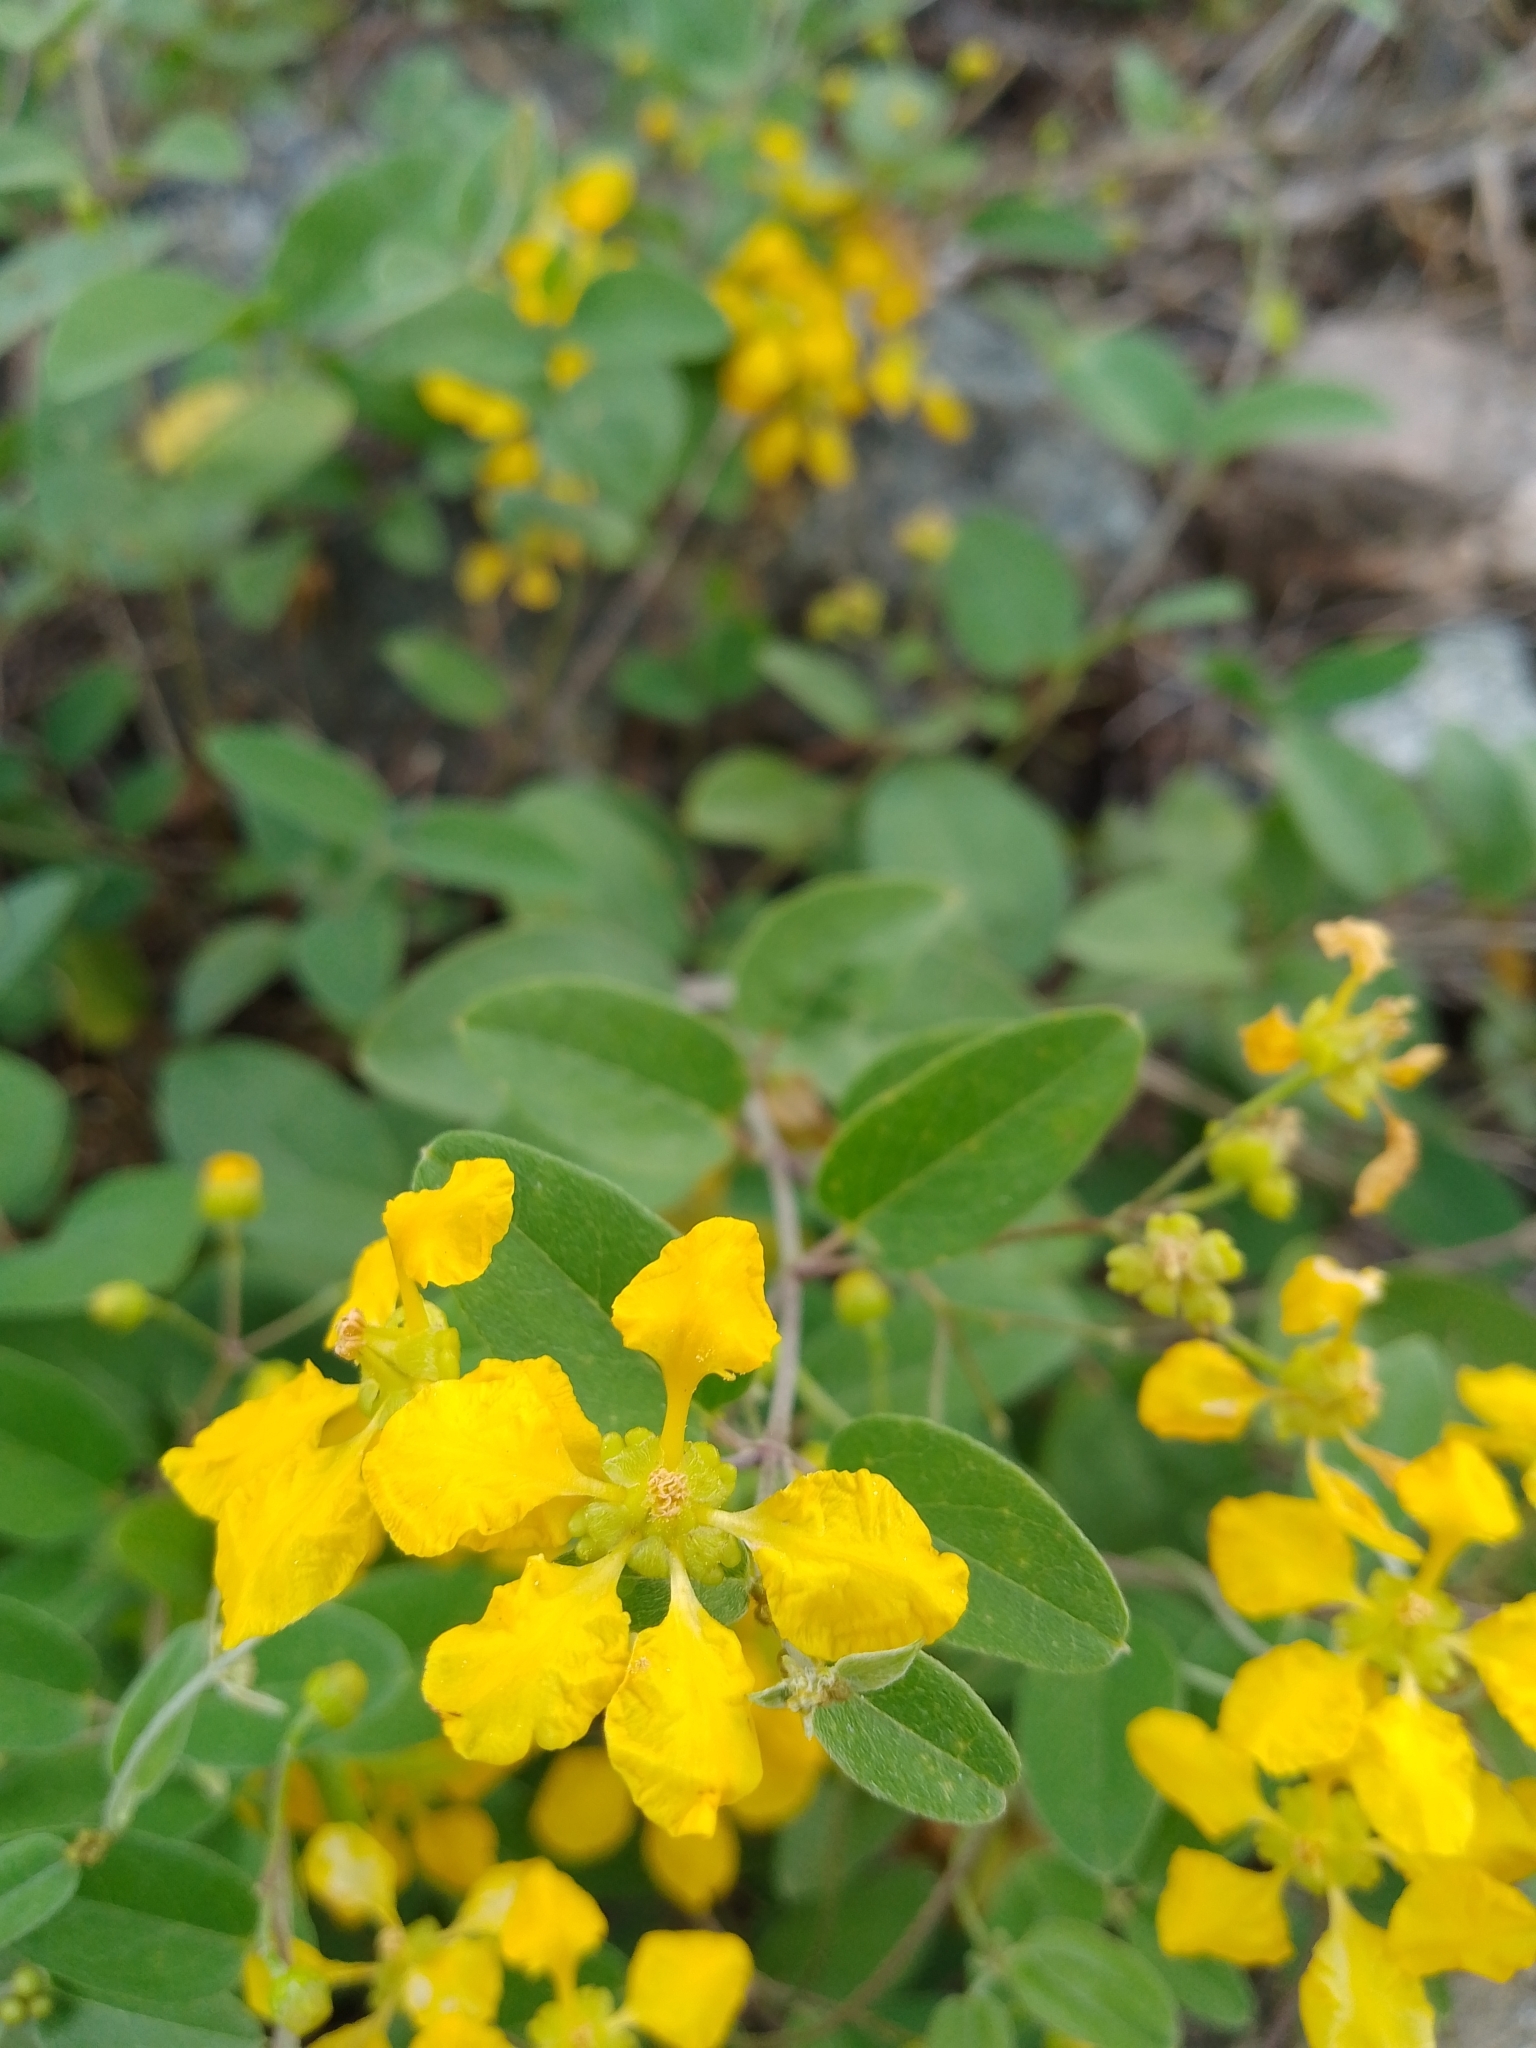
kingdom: Plantae
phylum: Tracheophyta
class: Magnoliopsida
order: Malpighiales
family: Malpighiaceae
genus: Janusia
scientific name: Janusia guaranitica
